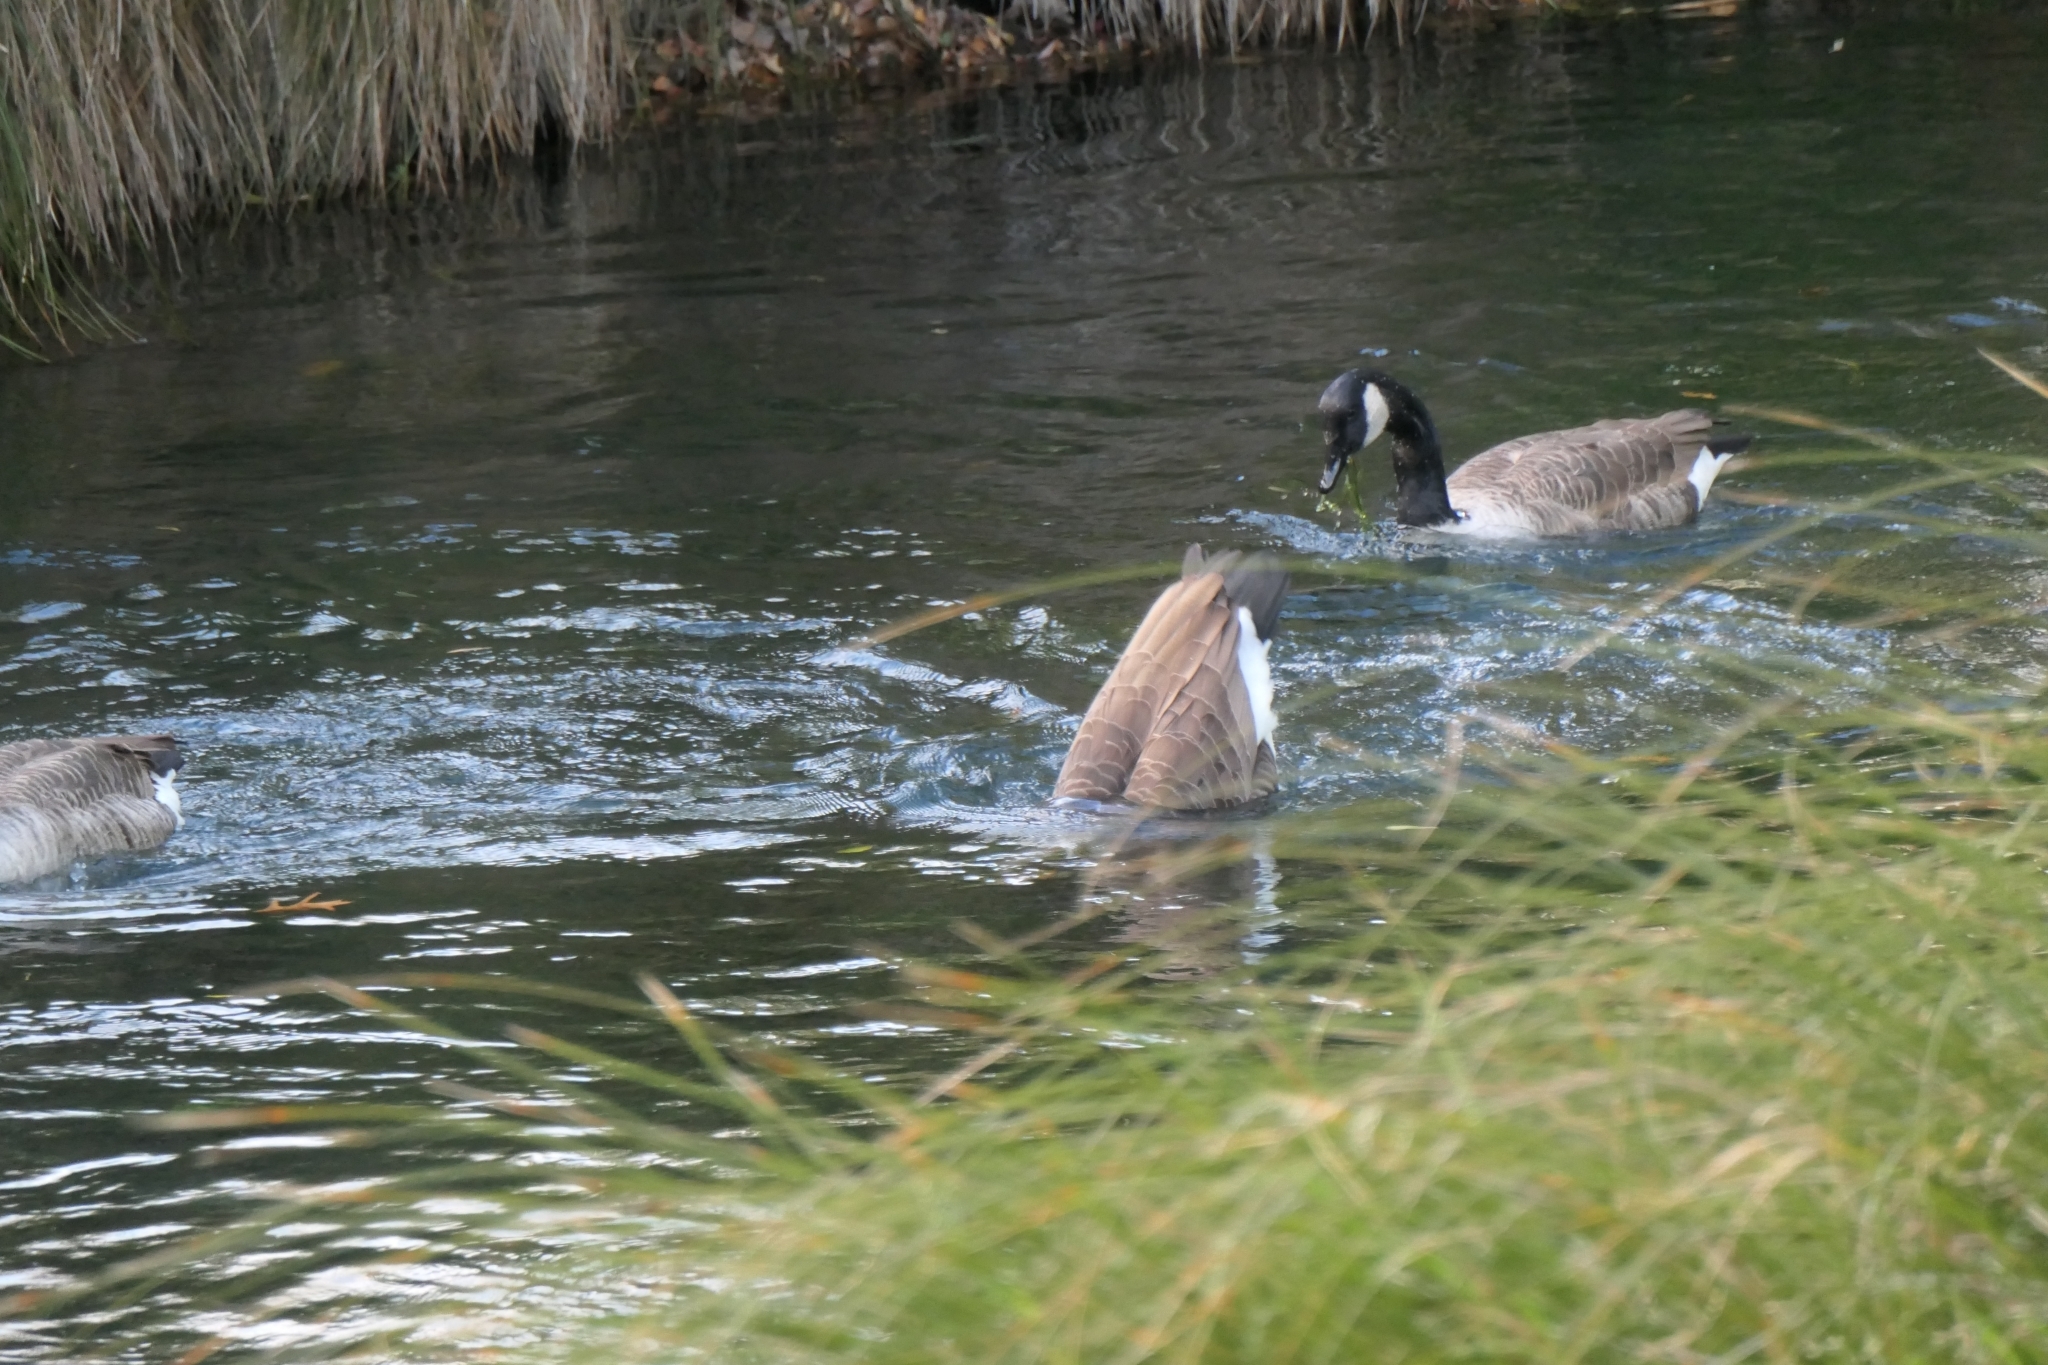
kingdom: Animalia
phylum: Chordata
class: Aves
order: Anseriformes
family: Anatidae
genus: Branta
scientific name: Branta canadensis
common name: Canada goose
